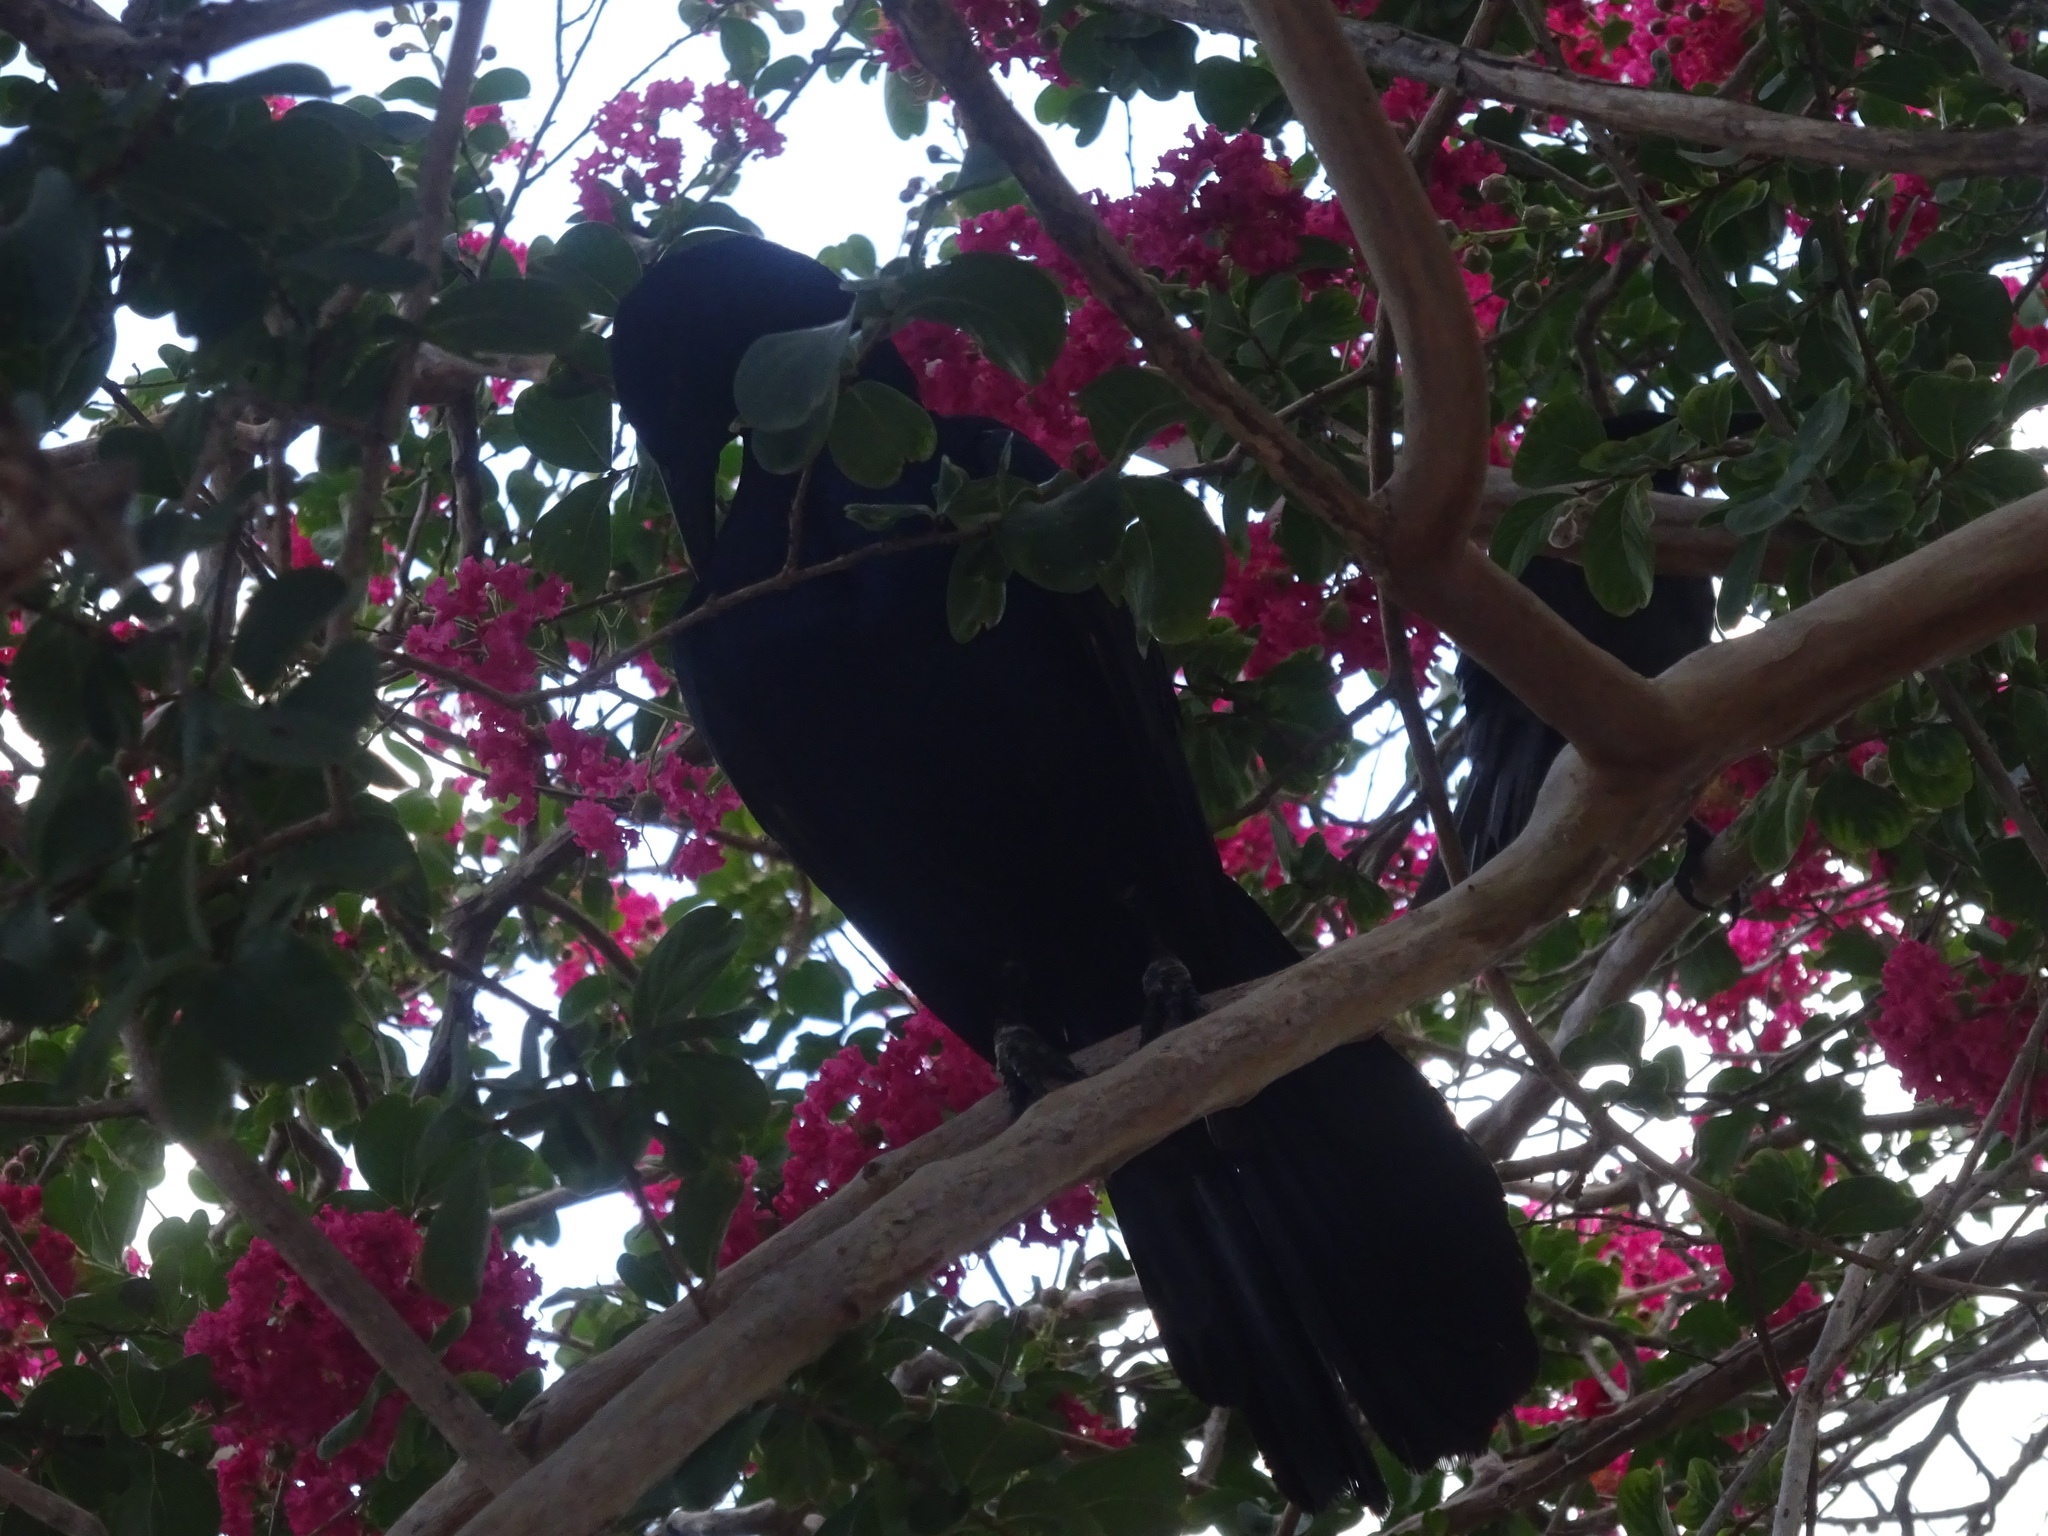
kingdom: Animalia
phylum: Chordata
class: Aves
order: Passeriformes
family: Icteridae
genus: Quiscalus
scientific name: Quiscalus major
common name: Boat-tailed grackle
